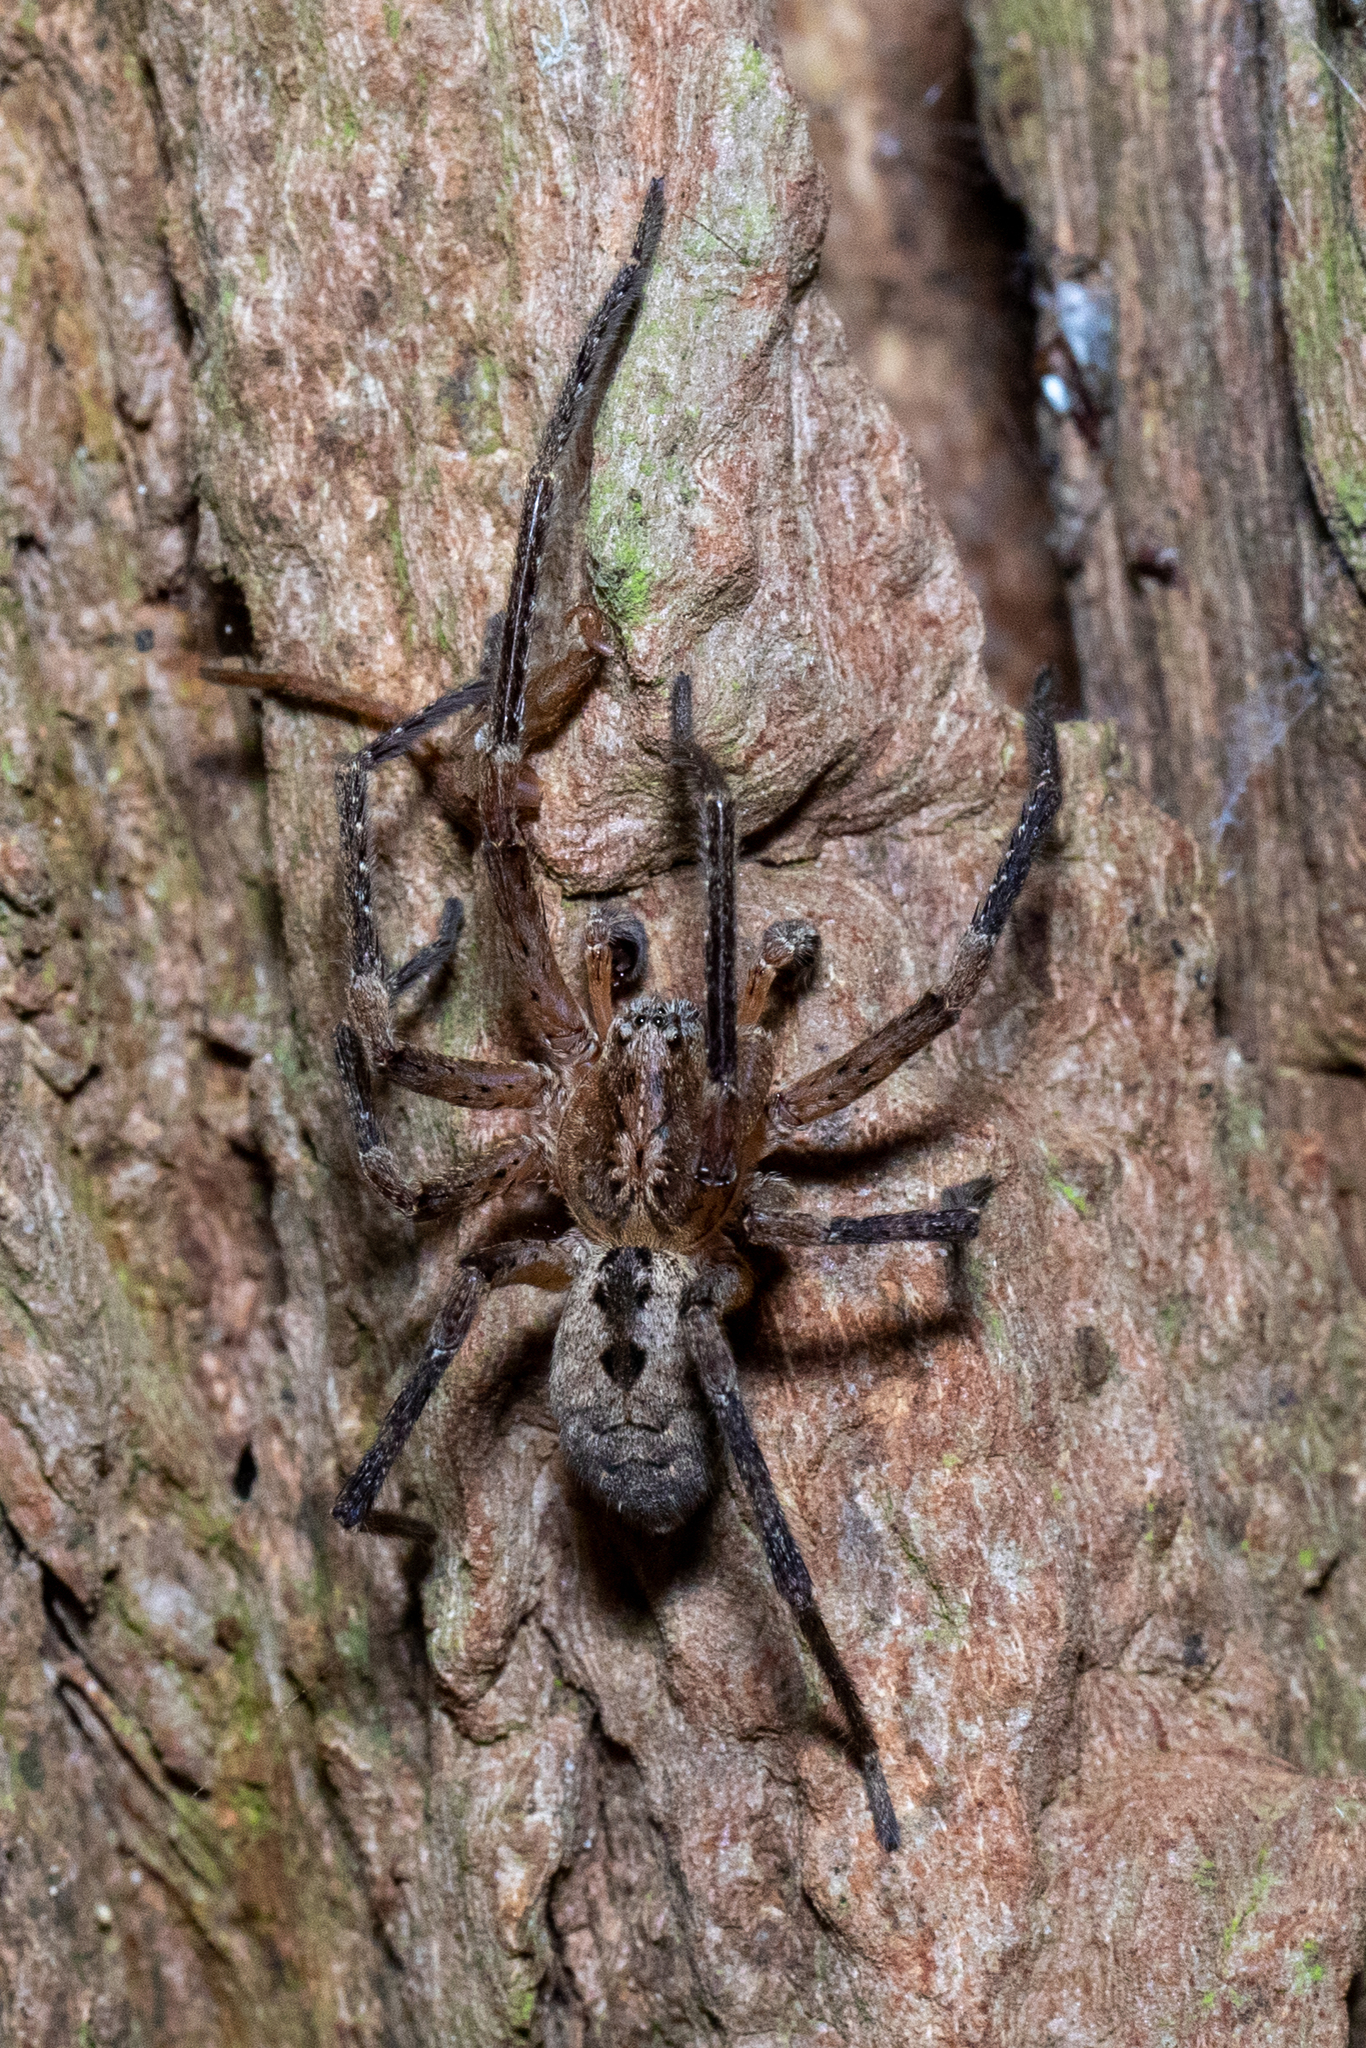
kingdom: Animalia
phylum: Arthropoda
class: Arachnida
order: Araneae
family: Zoropsidae
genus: Zoropsis
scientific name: Zoropsis spinimana
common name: Zoropsid spider
